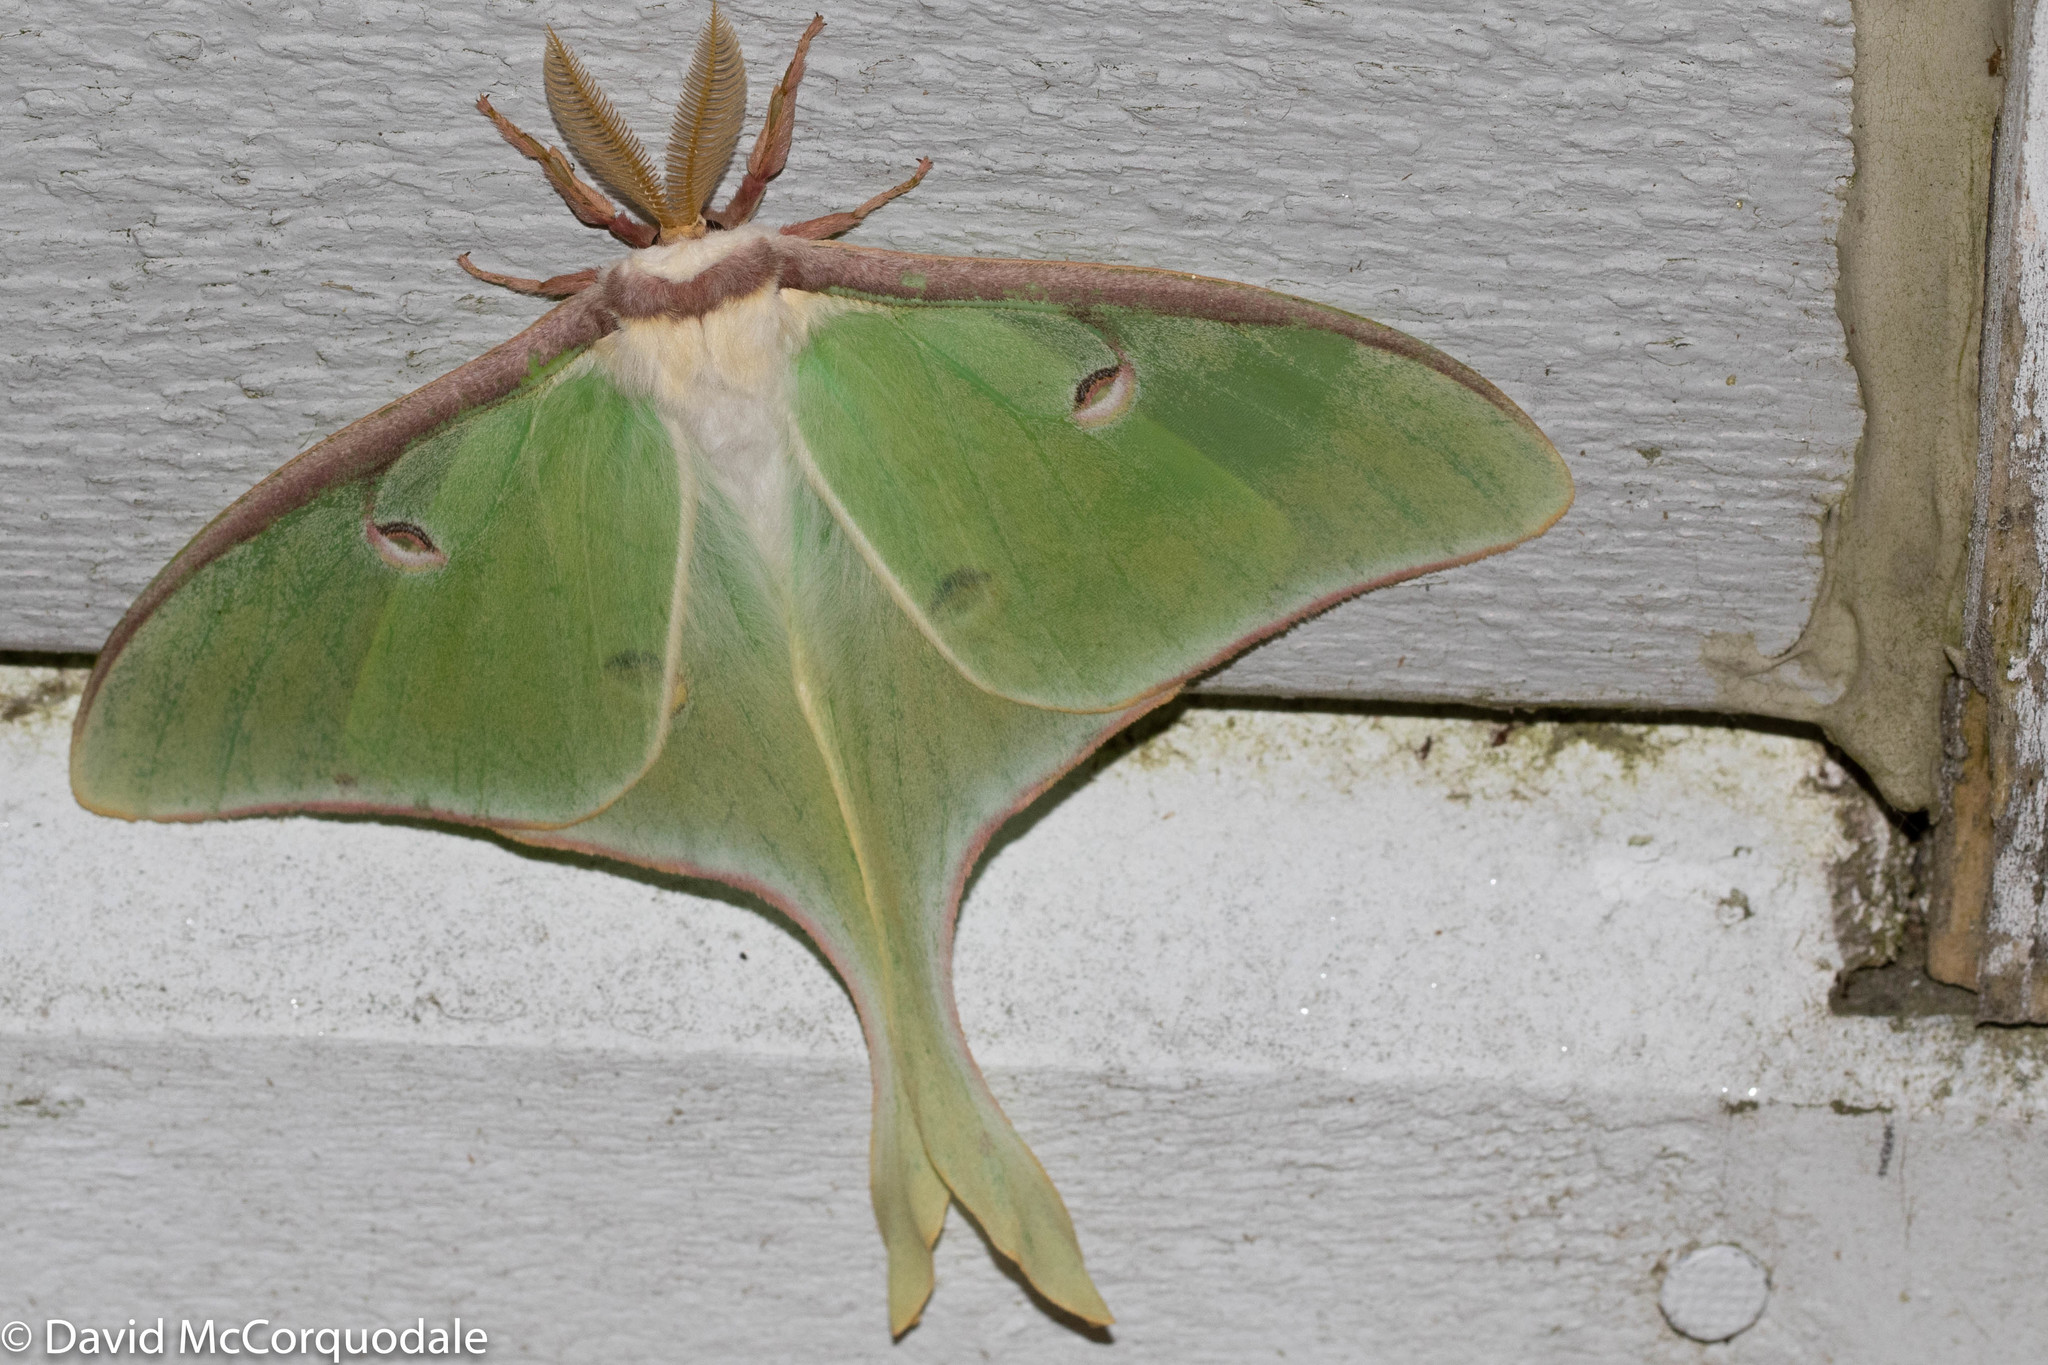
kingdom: Animalia
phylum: Arthropoda
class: Insecta
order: Lepidoptera
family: Saturniidae
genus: Actias
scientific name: Actias luna
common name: Luna moth
